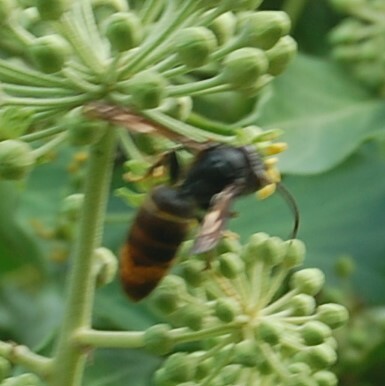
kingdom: Animalia
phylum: Arthropoda
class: Insecta
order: Hymenoptera
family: Vespidae
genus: Vespa
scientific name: Vespa velutina
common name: Asian hornet
